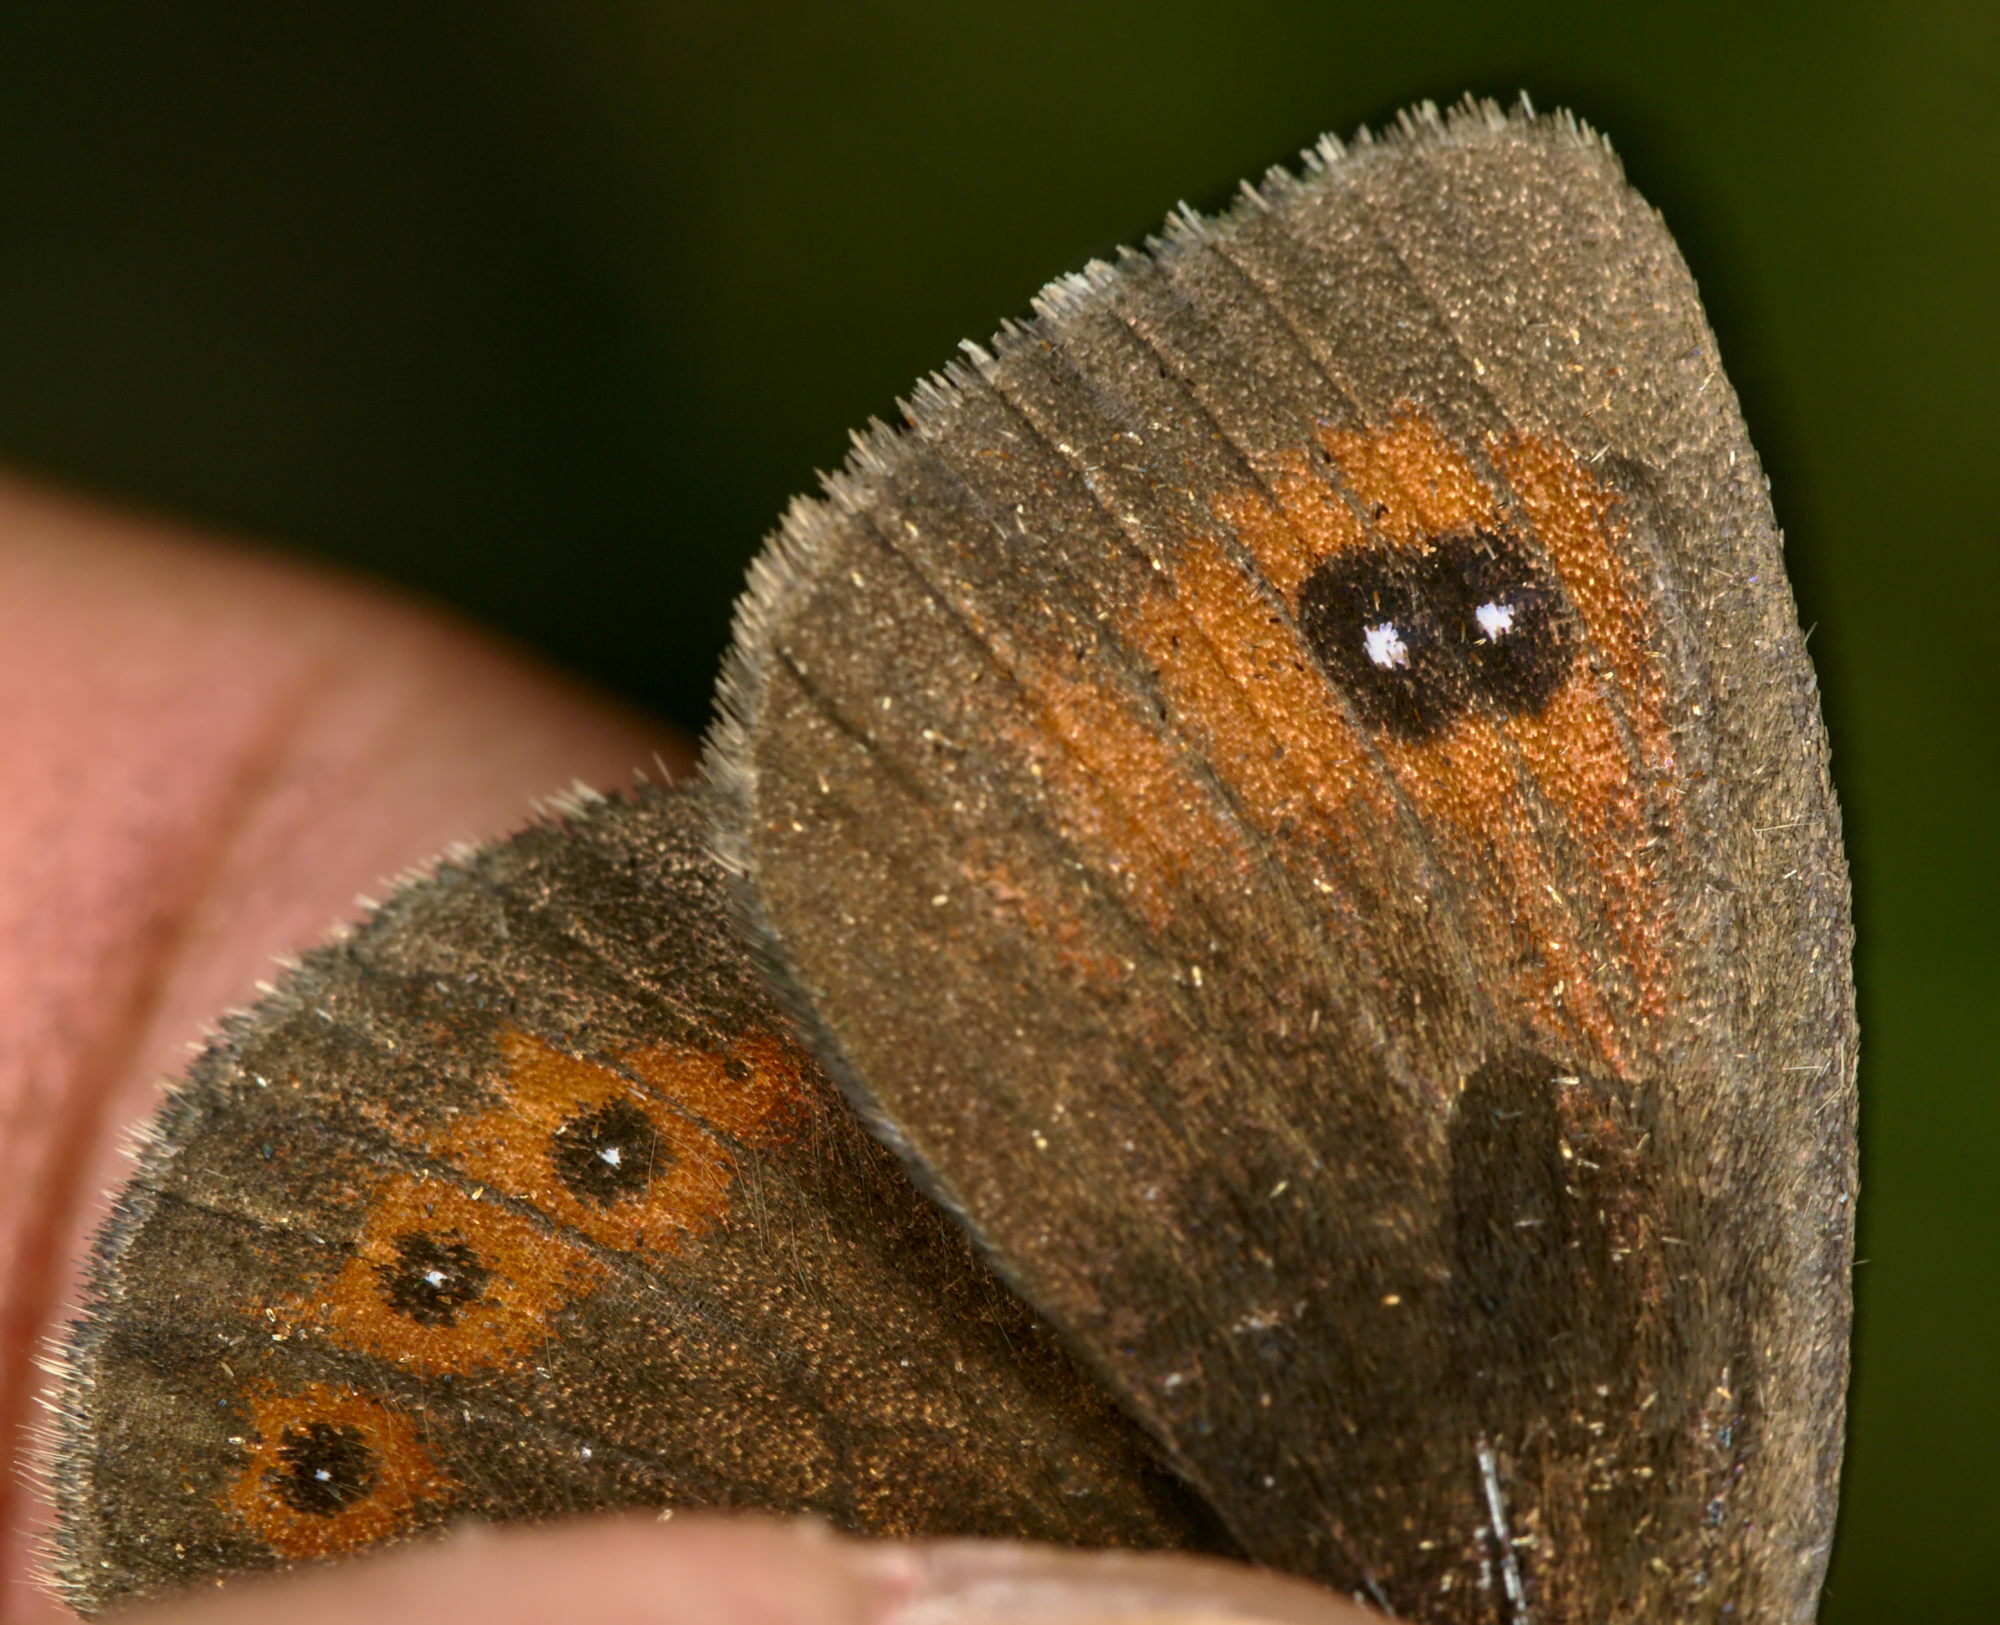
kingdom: Animalia
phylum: Arthropoda
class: Insecta
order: Lepidoptera
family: Nymphalidae
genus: Erebia
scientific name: Erebia cassioides
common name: Common brassy ringlet
